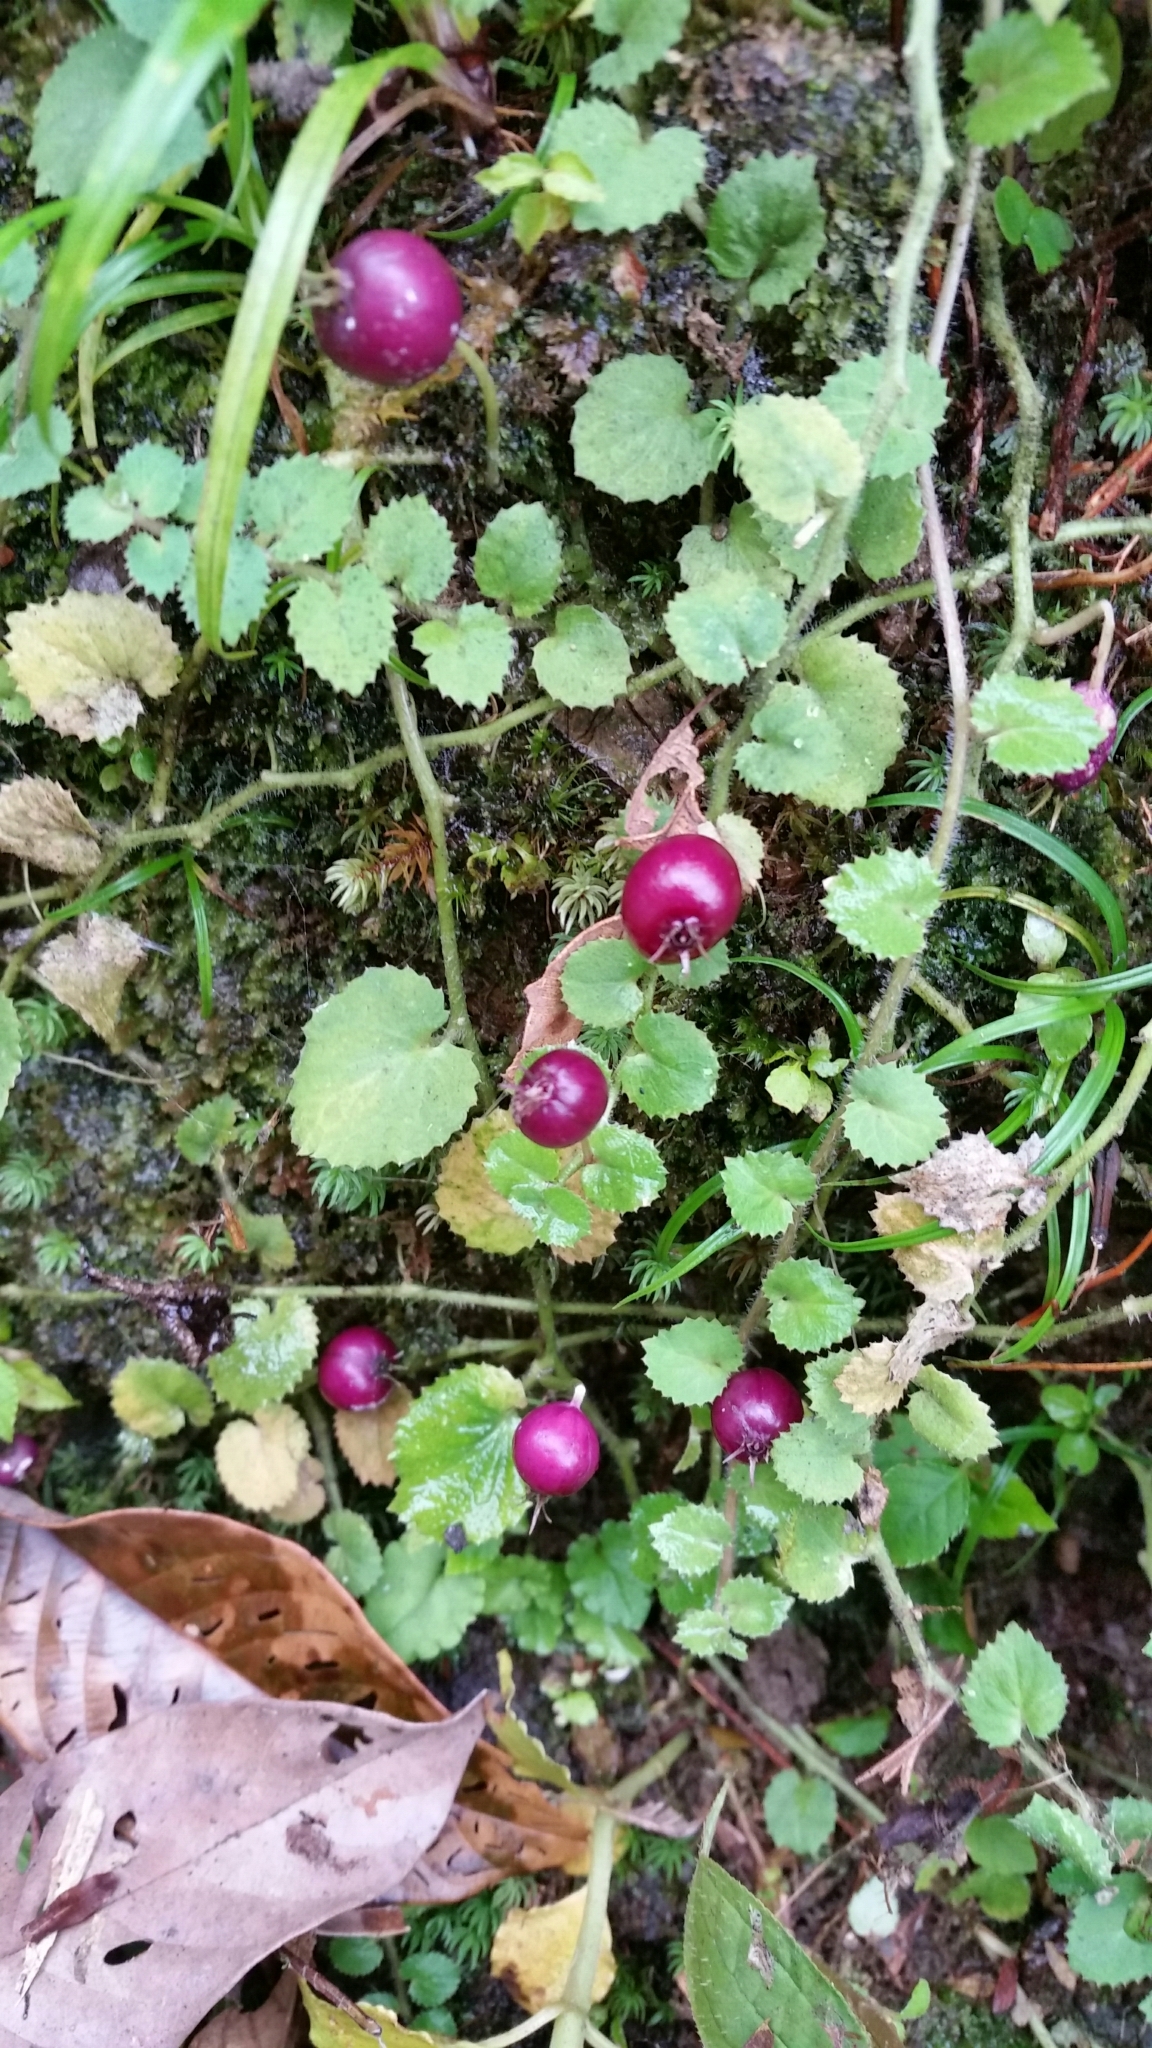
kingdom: Plantae
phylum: Tracheophyta
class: Magnoliopsida
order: Asterales
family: Campanulaceae
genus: Lobelia
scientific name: Lobelia nummularia
